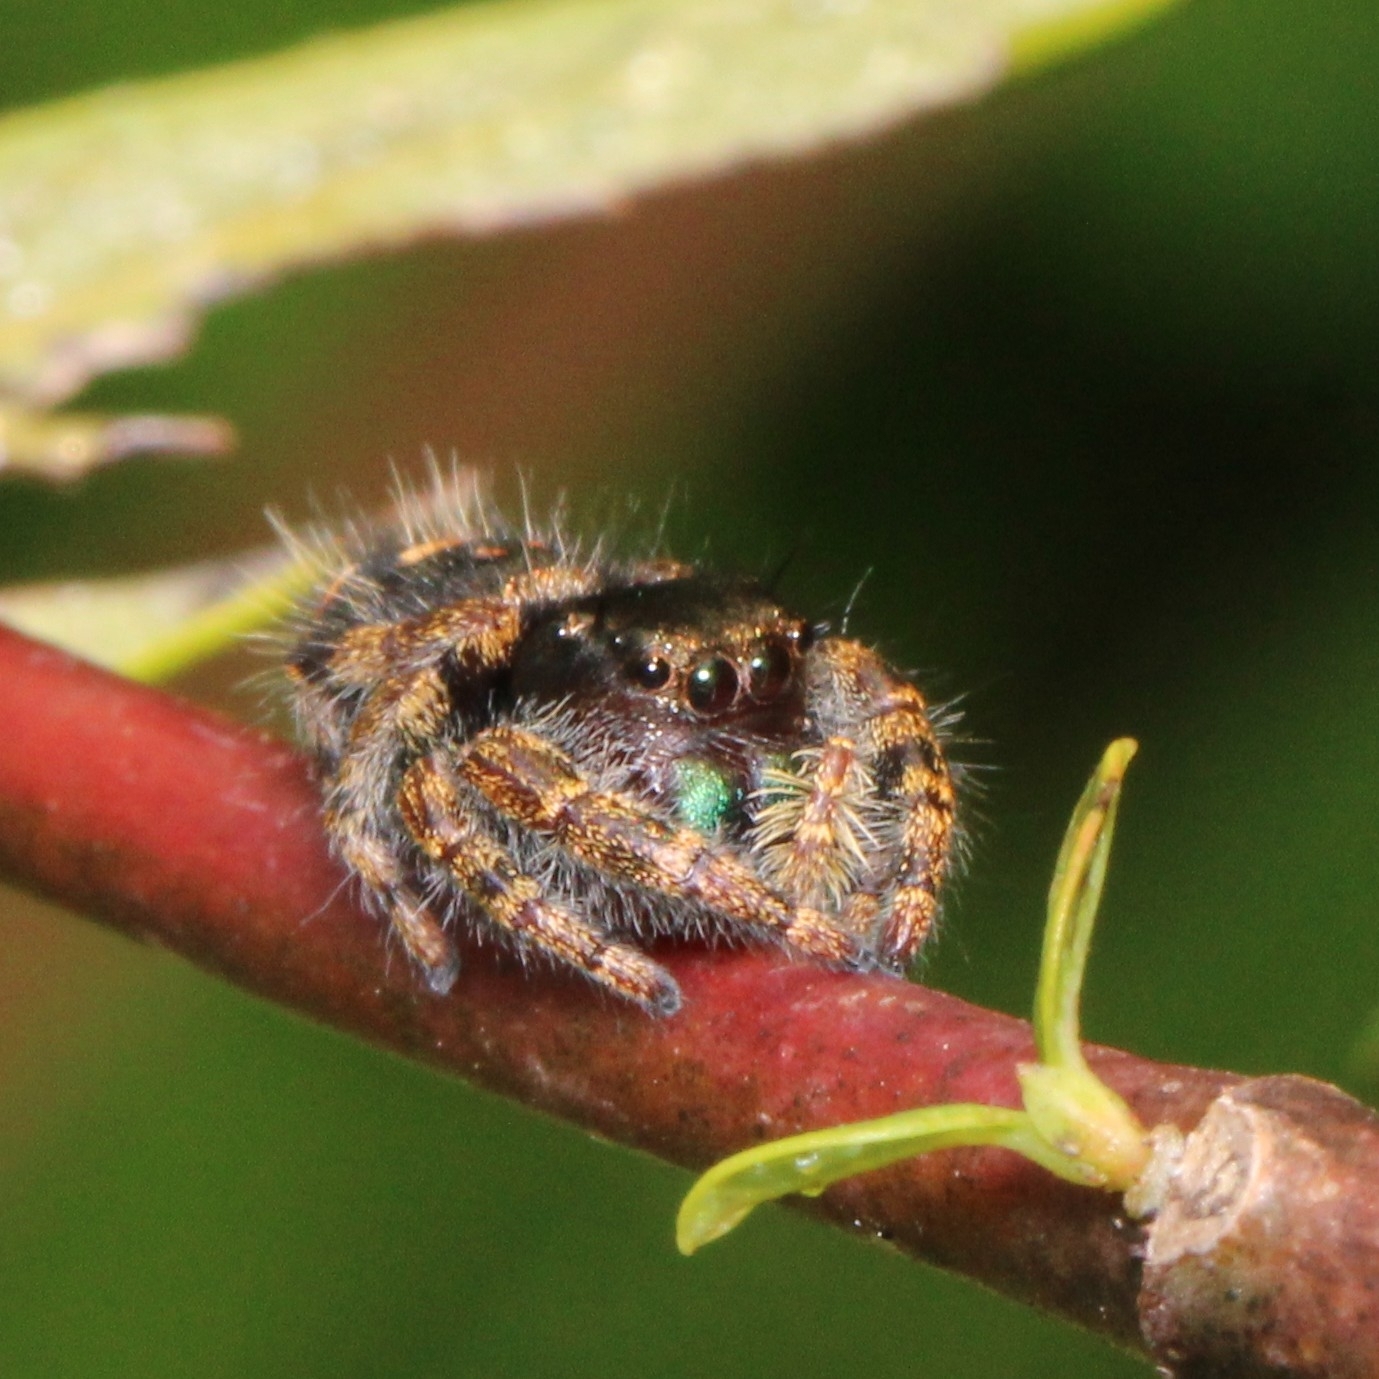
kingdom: Animalia
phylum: Arthropoda
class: Arachnida
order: Araneae
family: Salticidae
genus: Phidippus
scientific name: Phidippus audax
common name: Bold jumper
